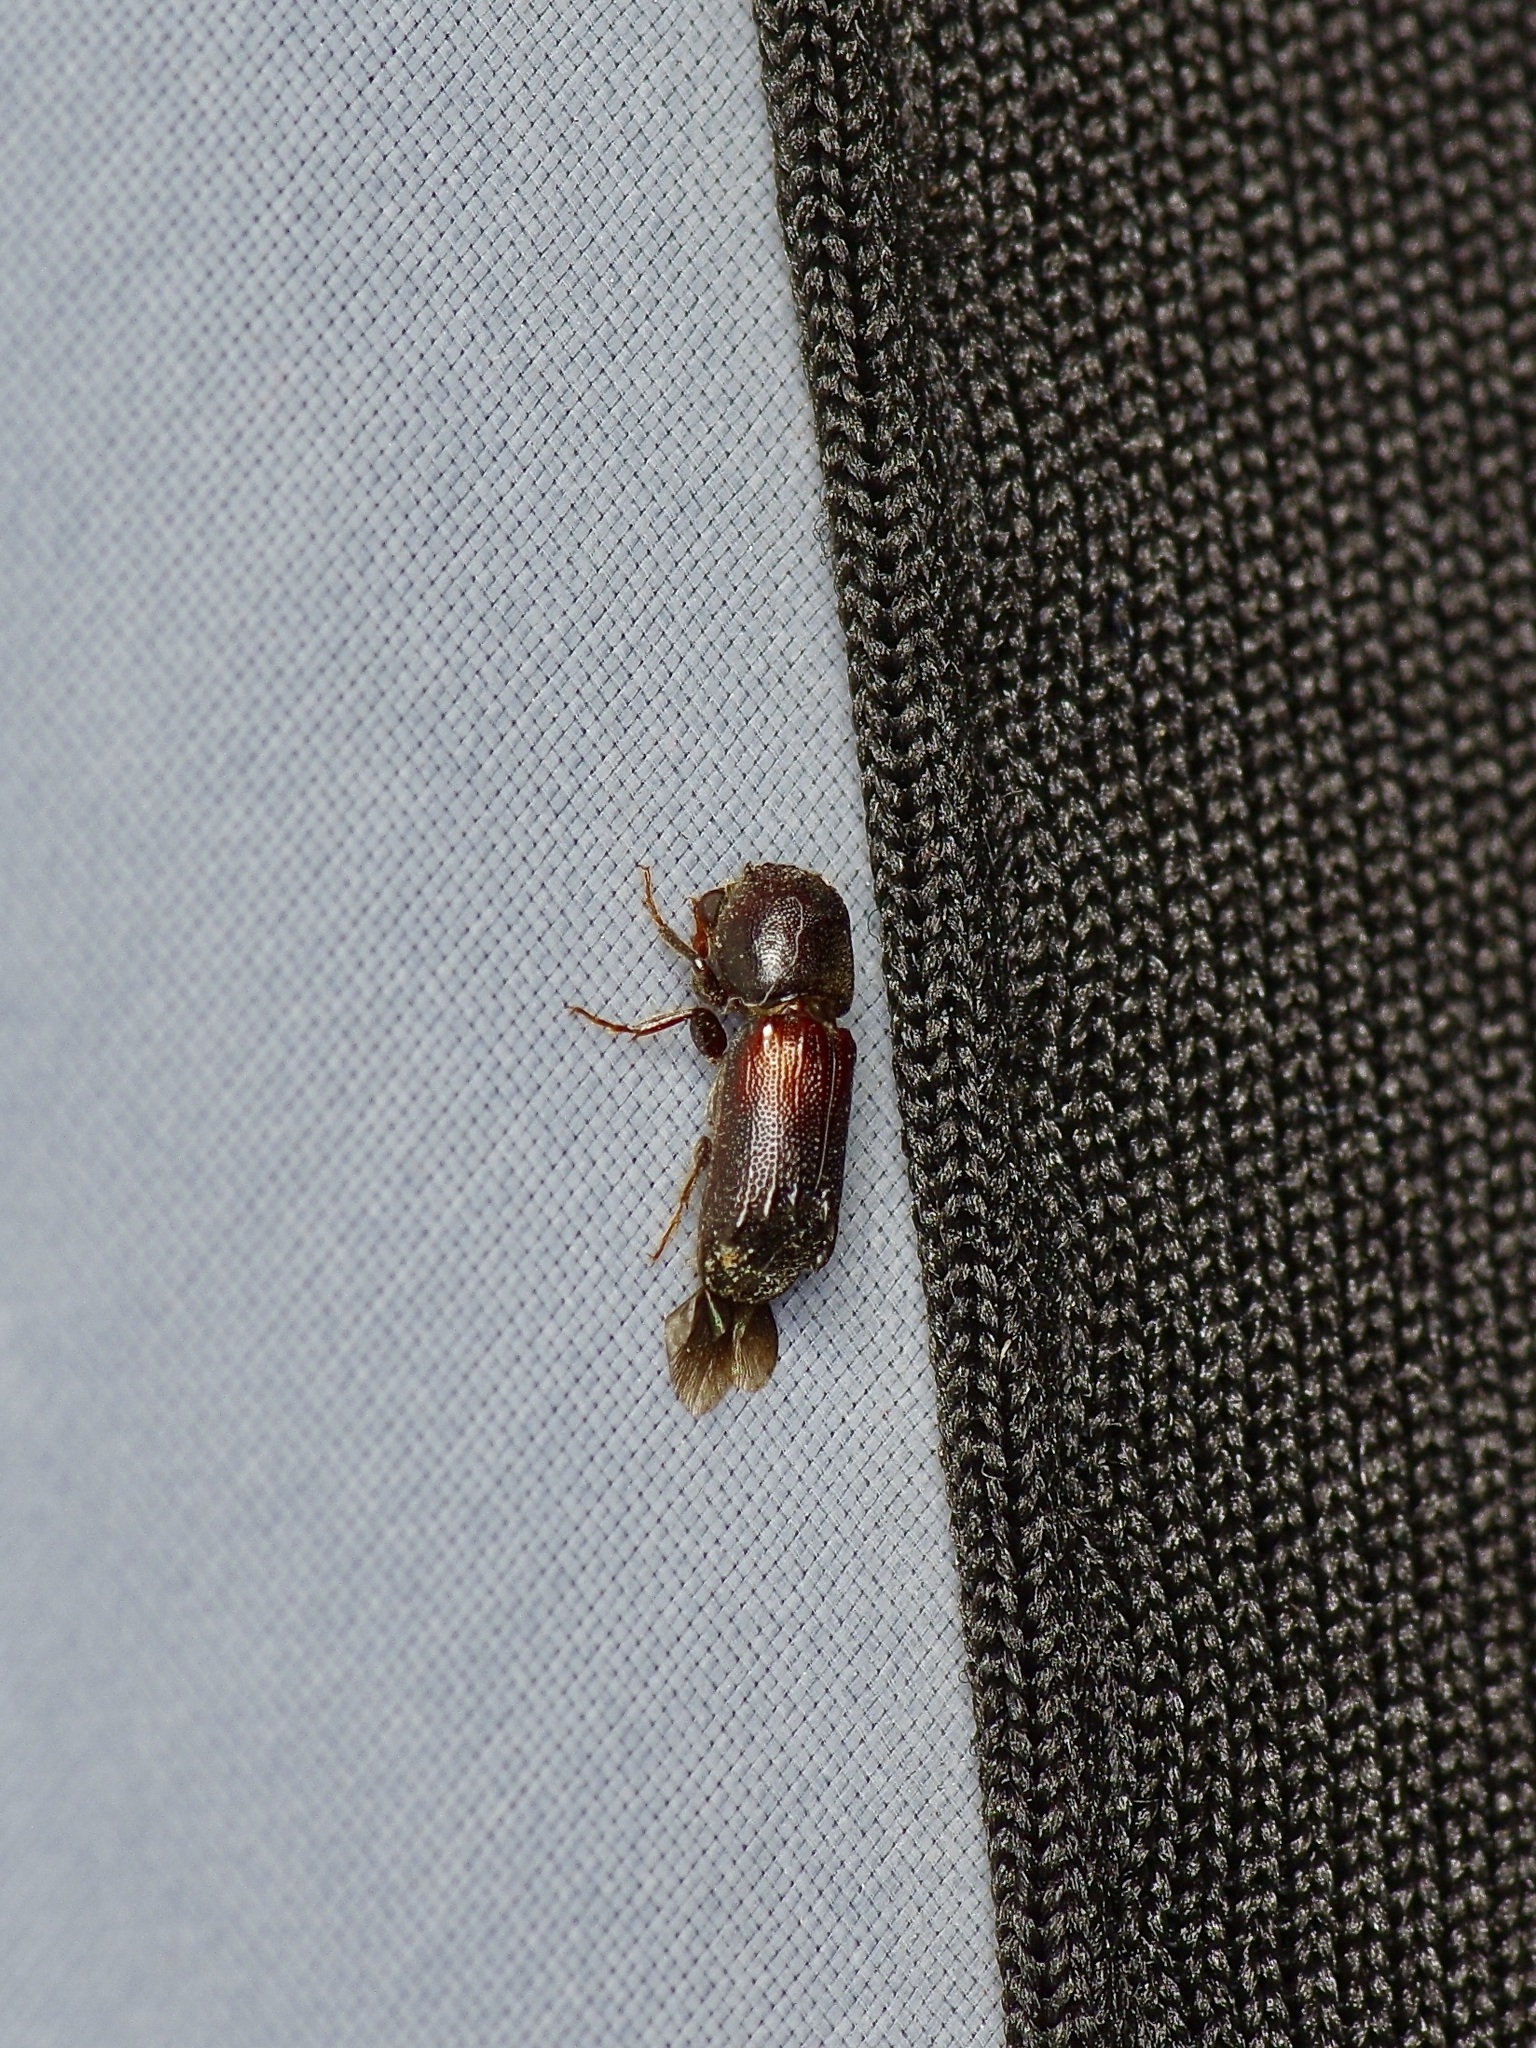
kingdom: Animalia
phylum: Arthropoda
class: Insecta
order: Coleoptera
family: Bostrichidae
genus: Xylobiops
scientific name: Xylobiops basilaris
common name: Red-shouldered bostrichid
